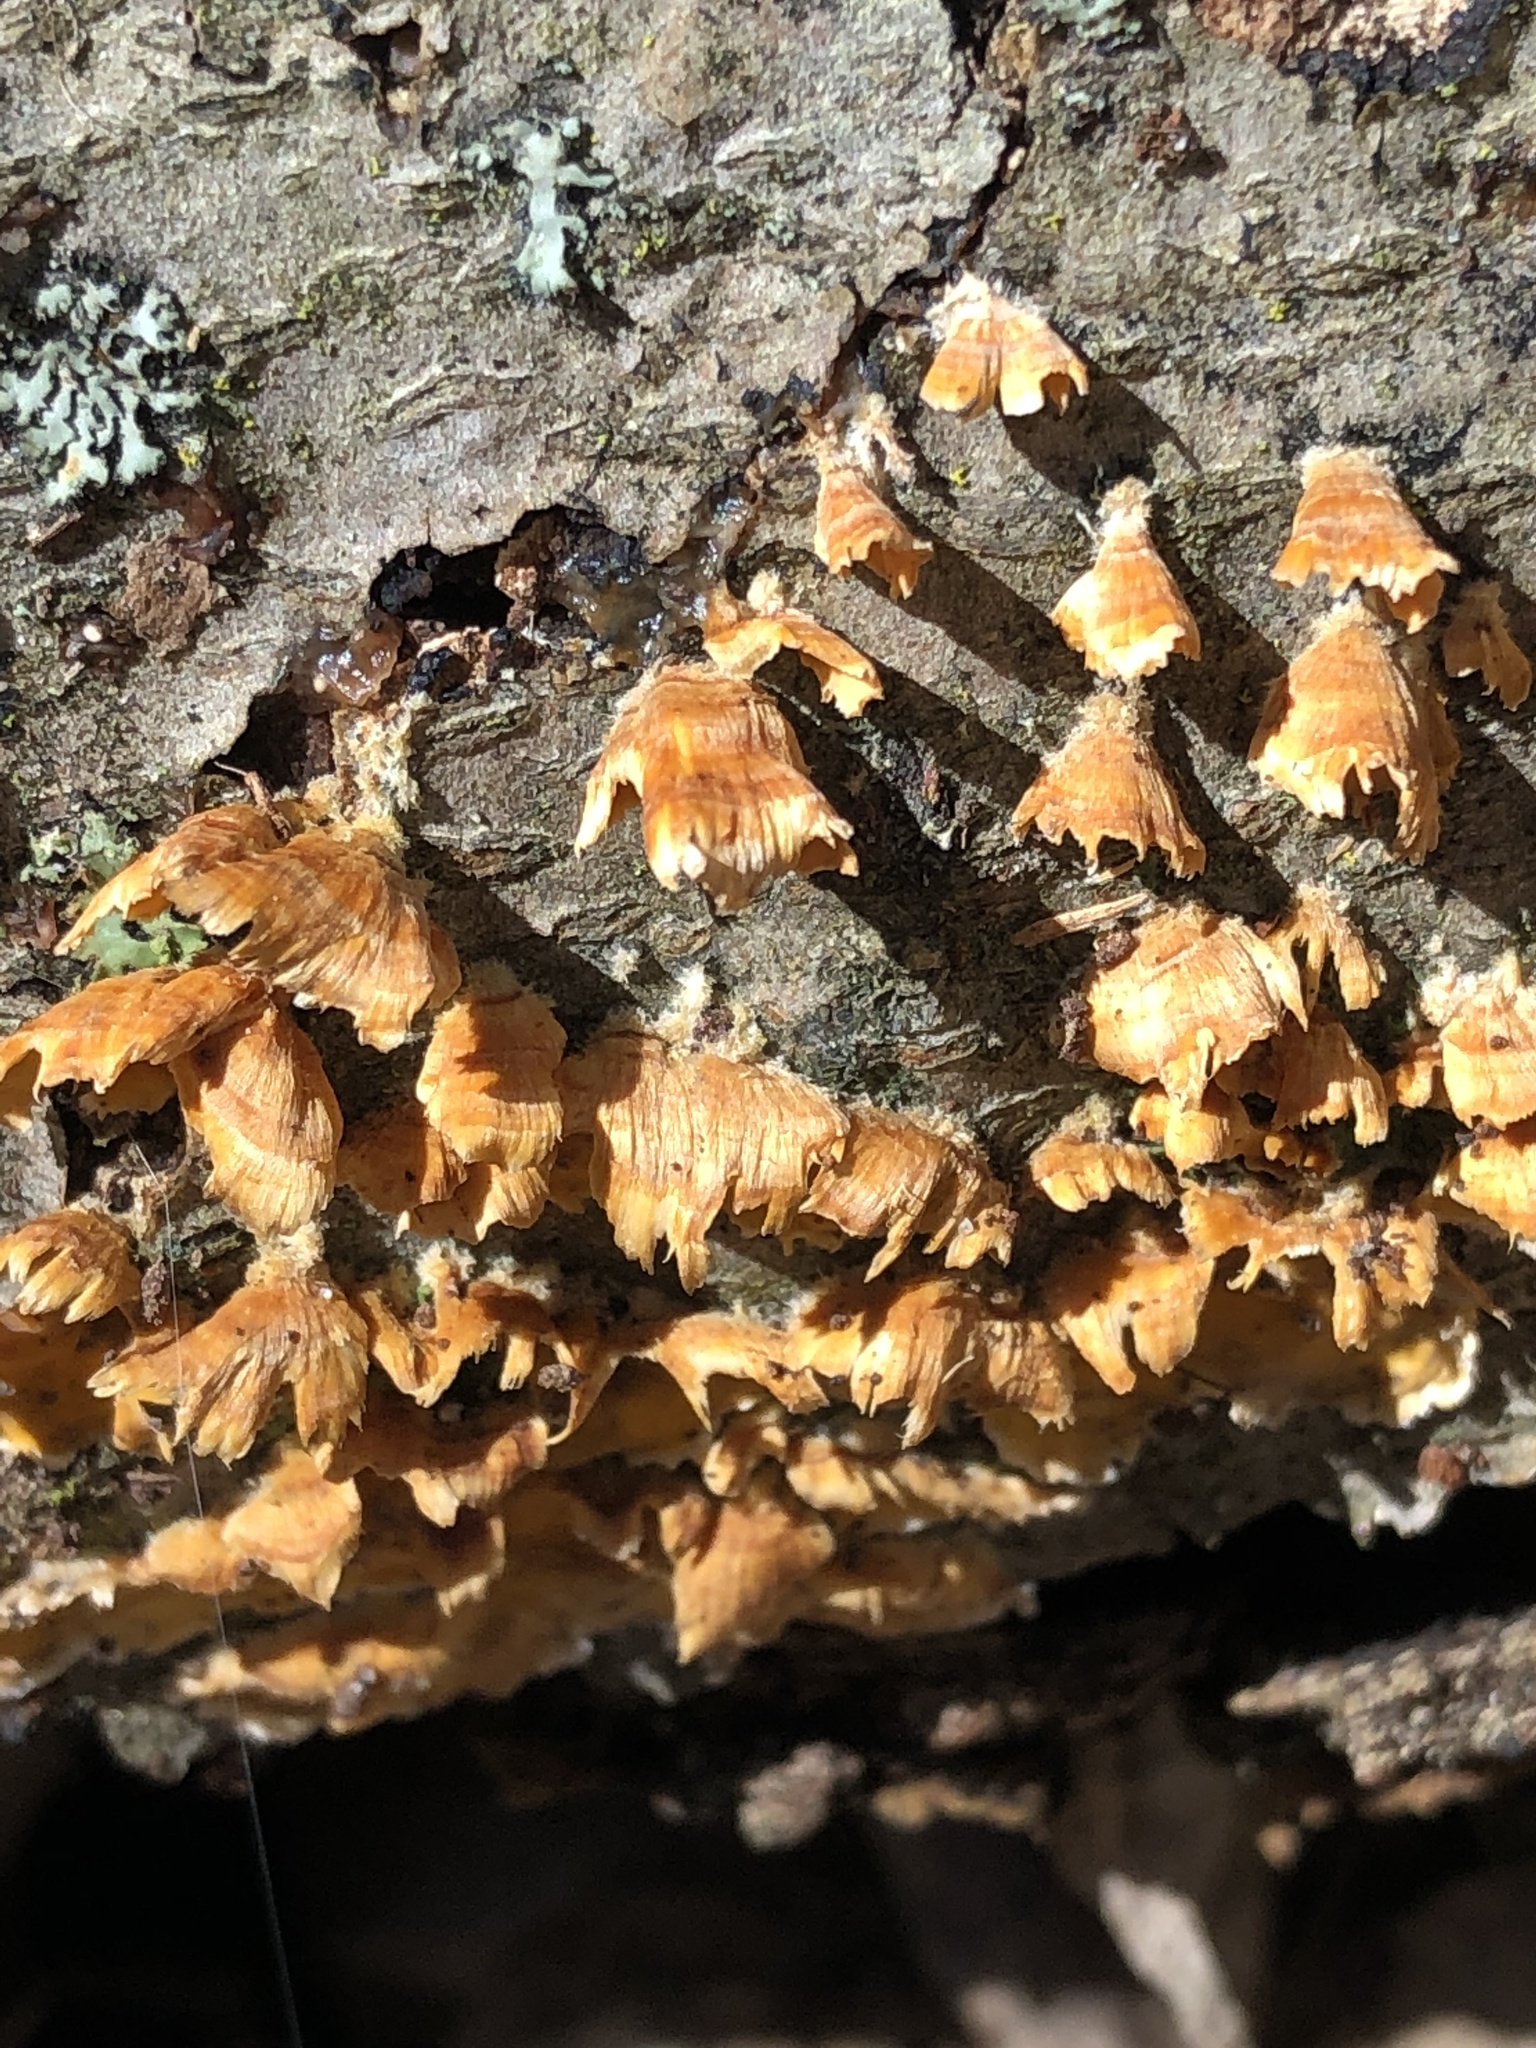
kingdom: Fungi
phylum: Basidiomycota
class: Agaricomycetes
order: Russulales
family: Stereaceae
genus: Stereum
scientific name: Stereum complicatum
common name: Crowded parchment
